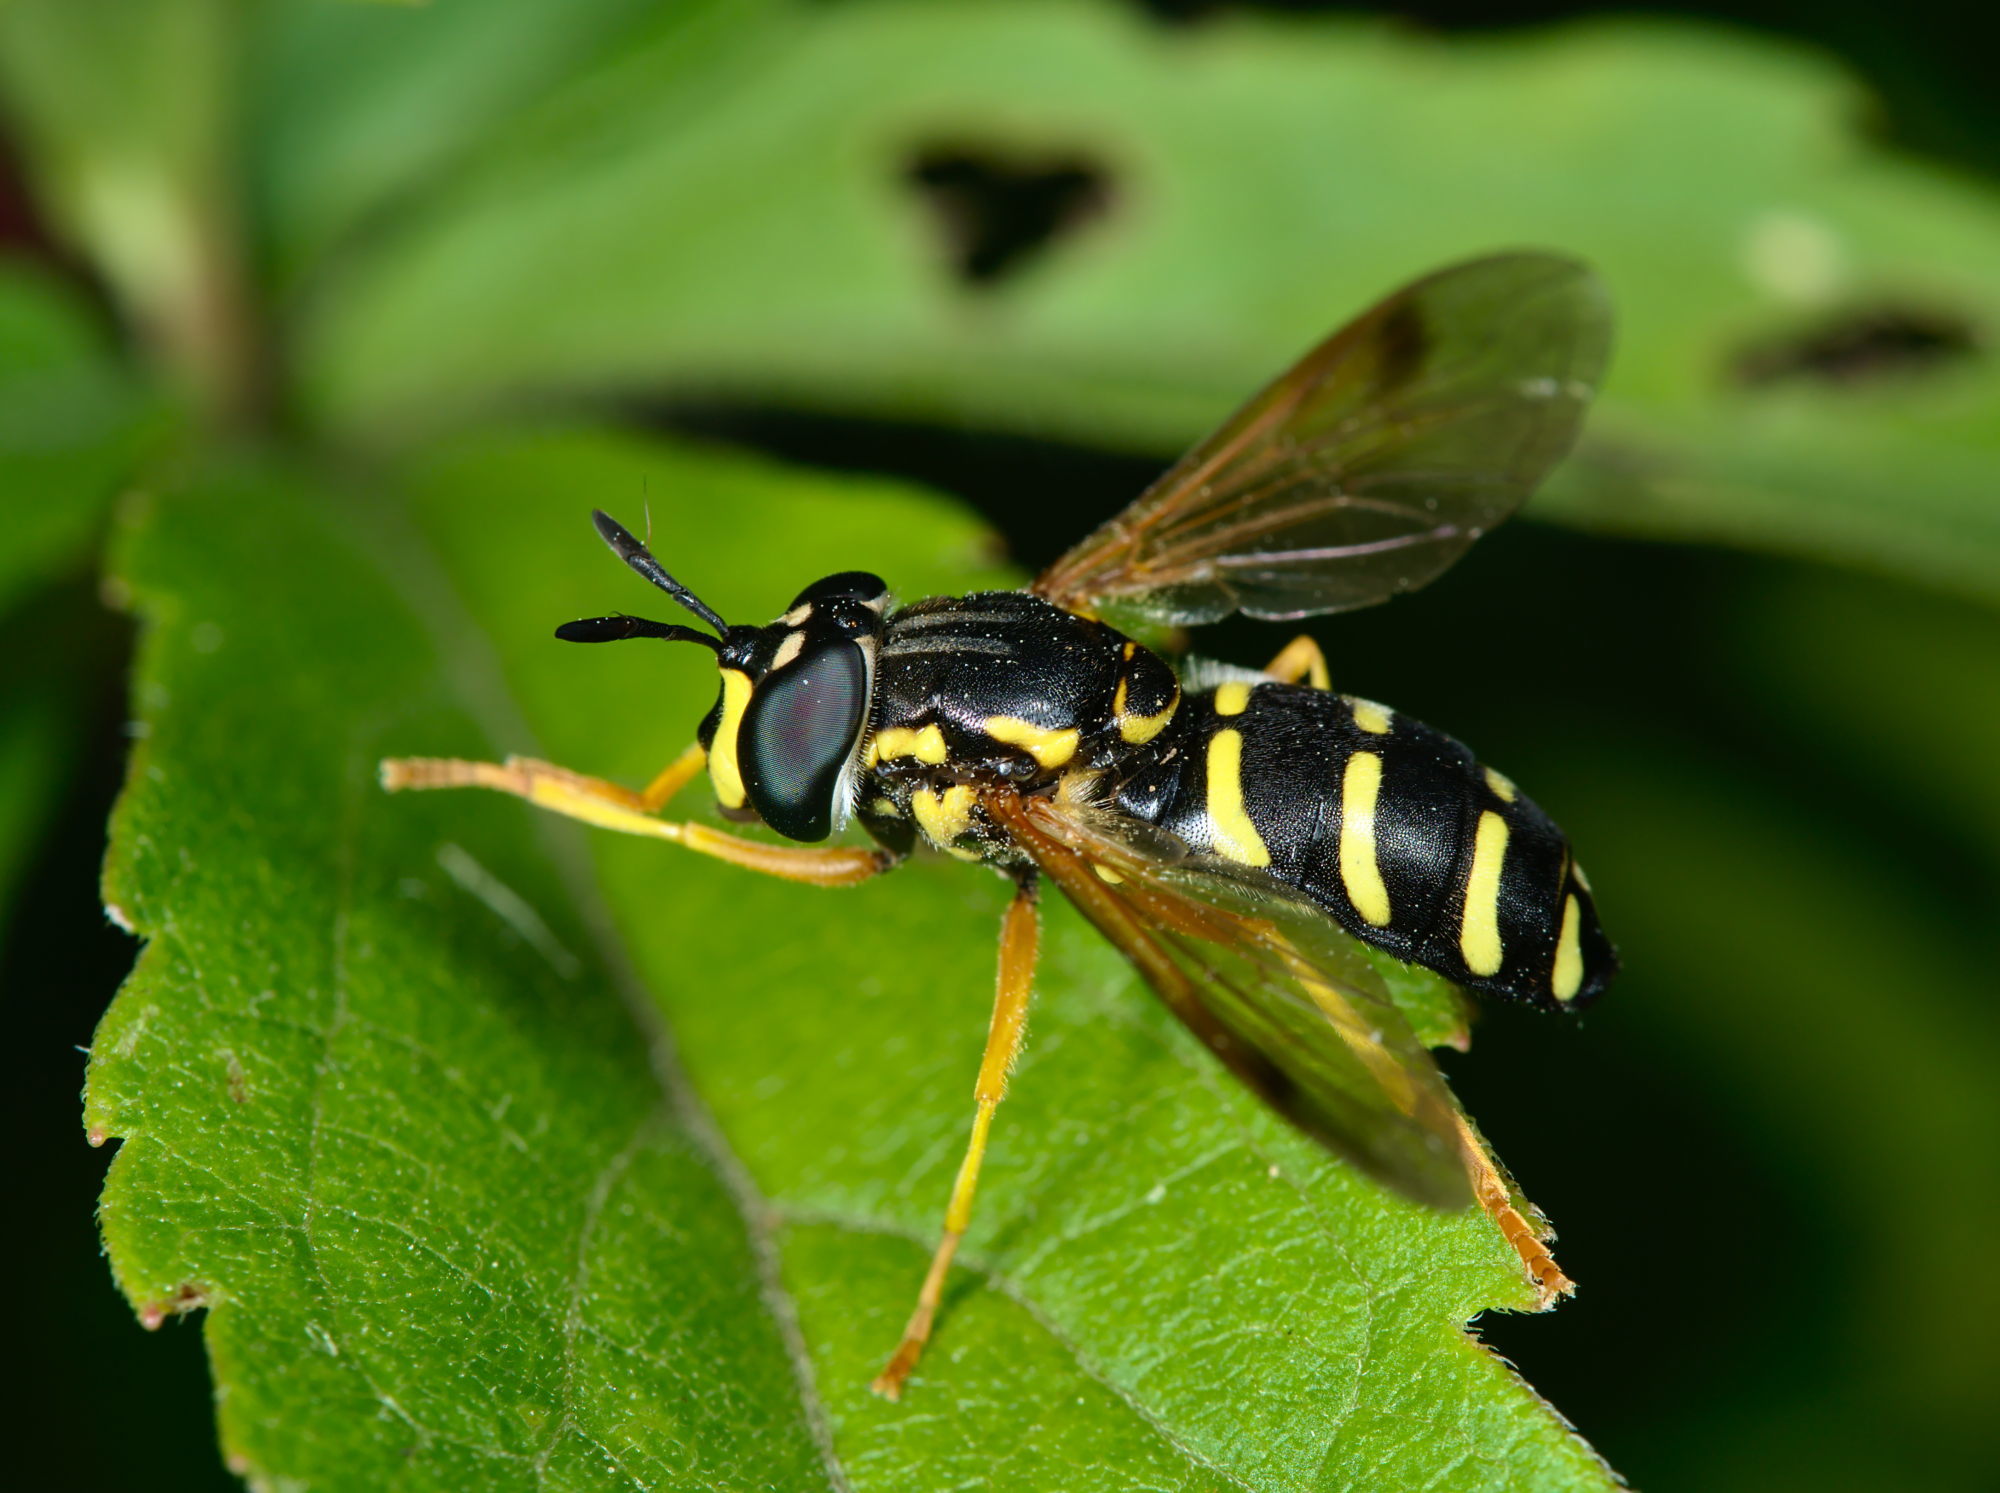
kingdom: Animalia
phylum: Arthropoda
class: Insecta
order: Diptera
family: Syrphidae
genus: Chrysotoxum
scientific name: Chrysotoxum festivum
